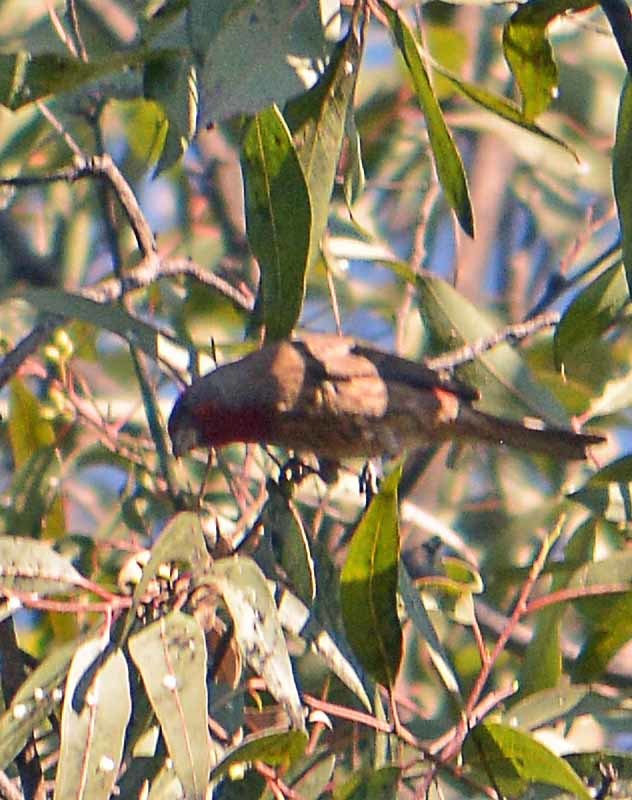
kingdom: Animalia
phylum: Chordata
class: Aves
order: Passeriformes
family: Fringillidae
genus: Haemorhous
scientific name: Haemorhous mexicanus
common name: House finch
